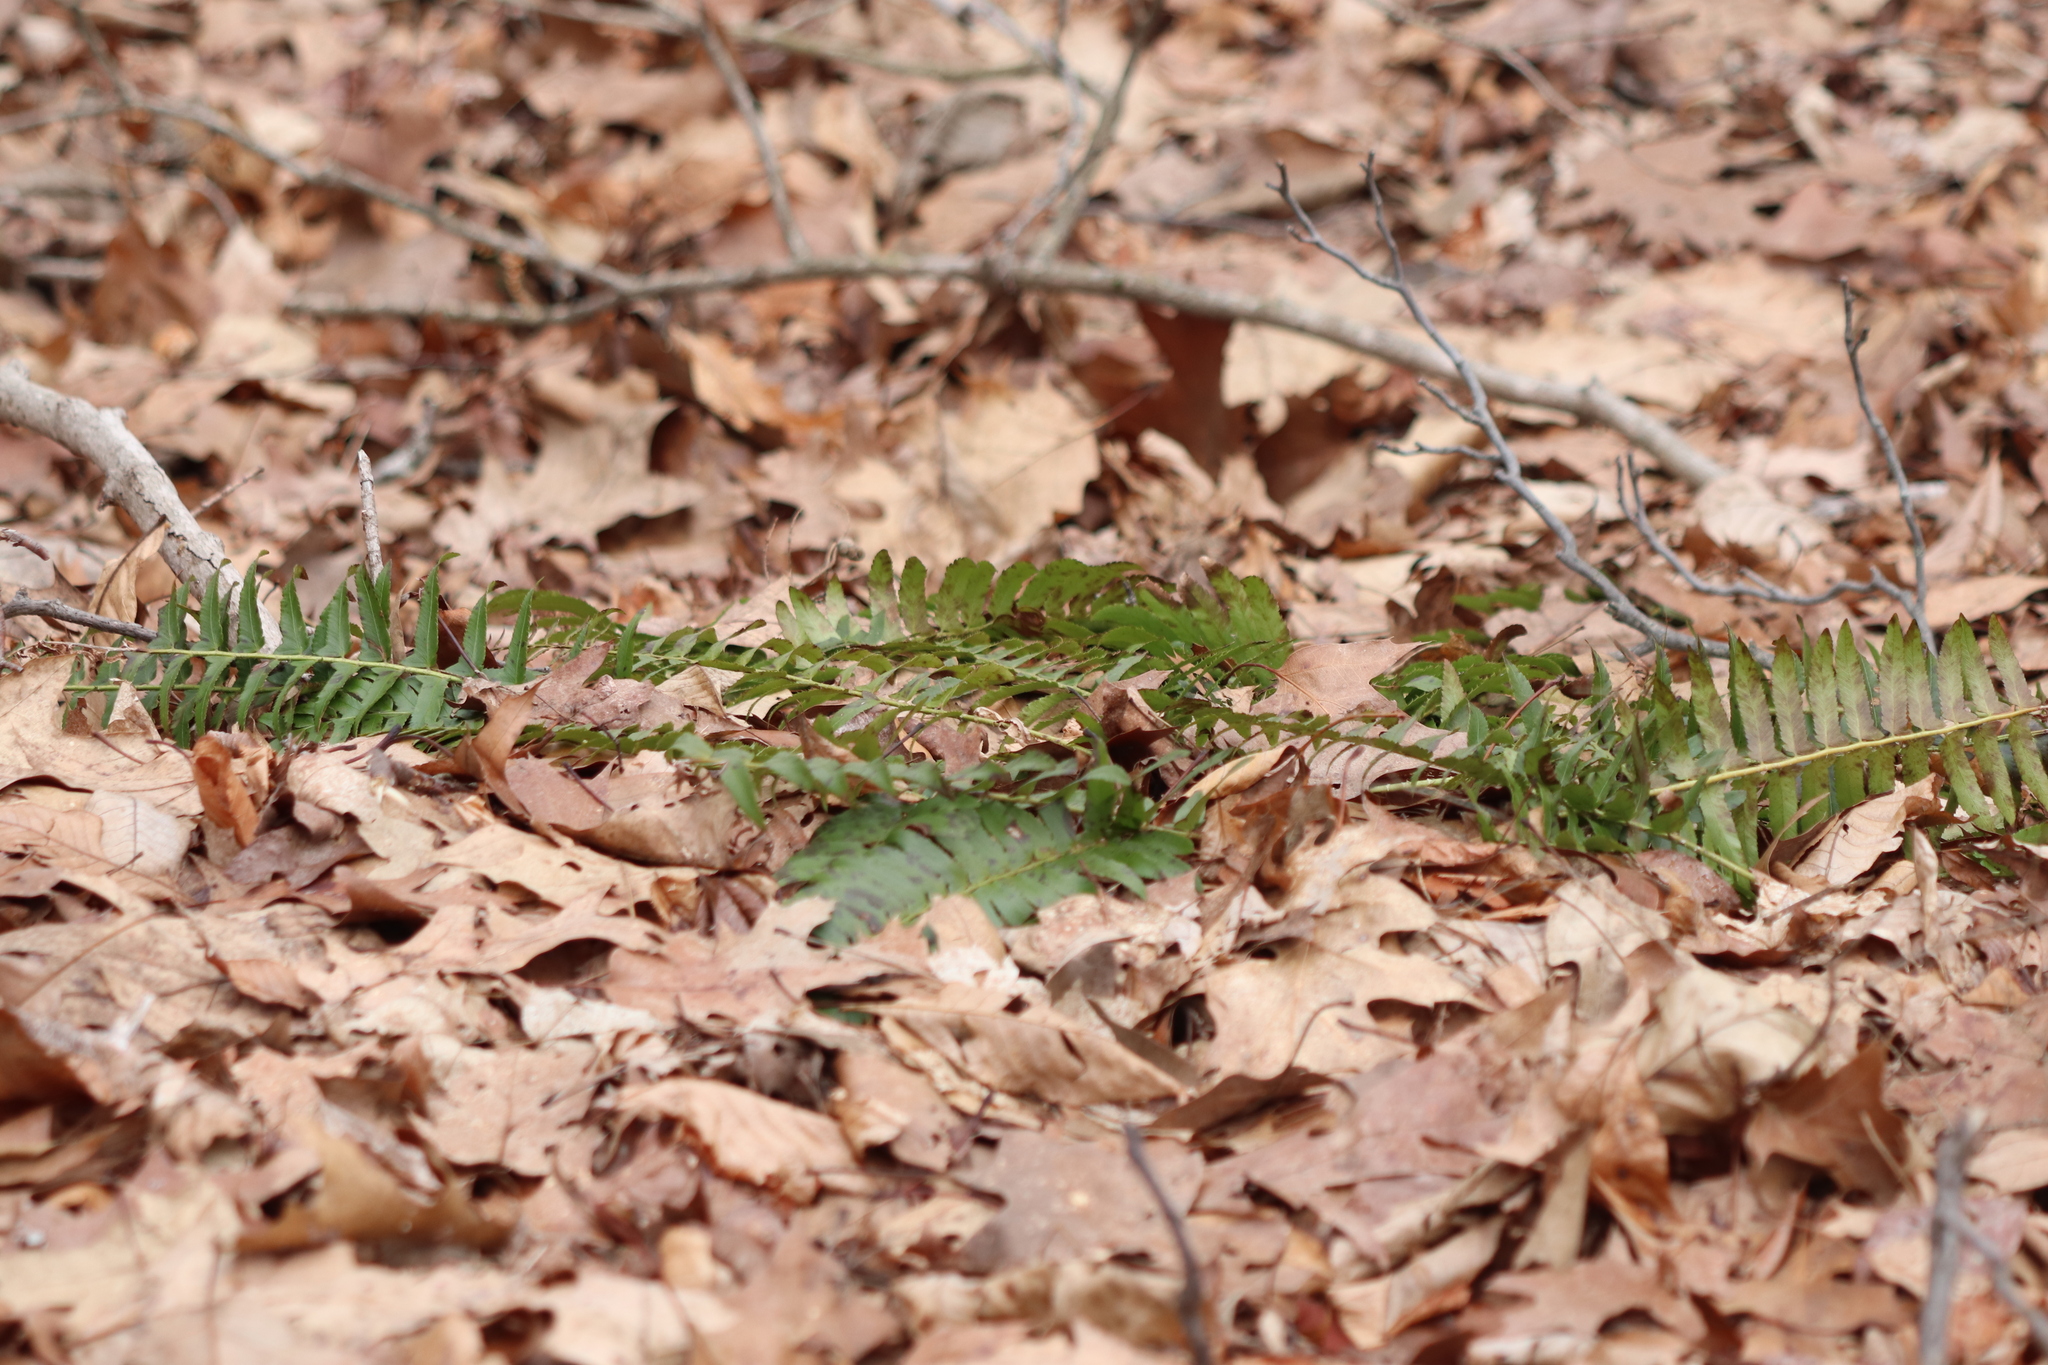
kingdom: Plantae
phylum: Tracheophyta
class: Polypodiopsida
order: Polypodiales
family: Dryopteridaceae
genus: Polystichum
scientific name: Polystichum acrostichoides
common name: Christmas fern
